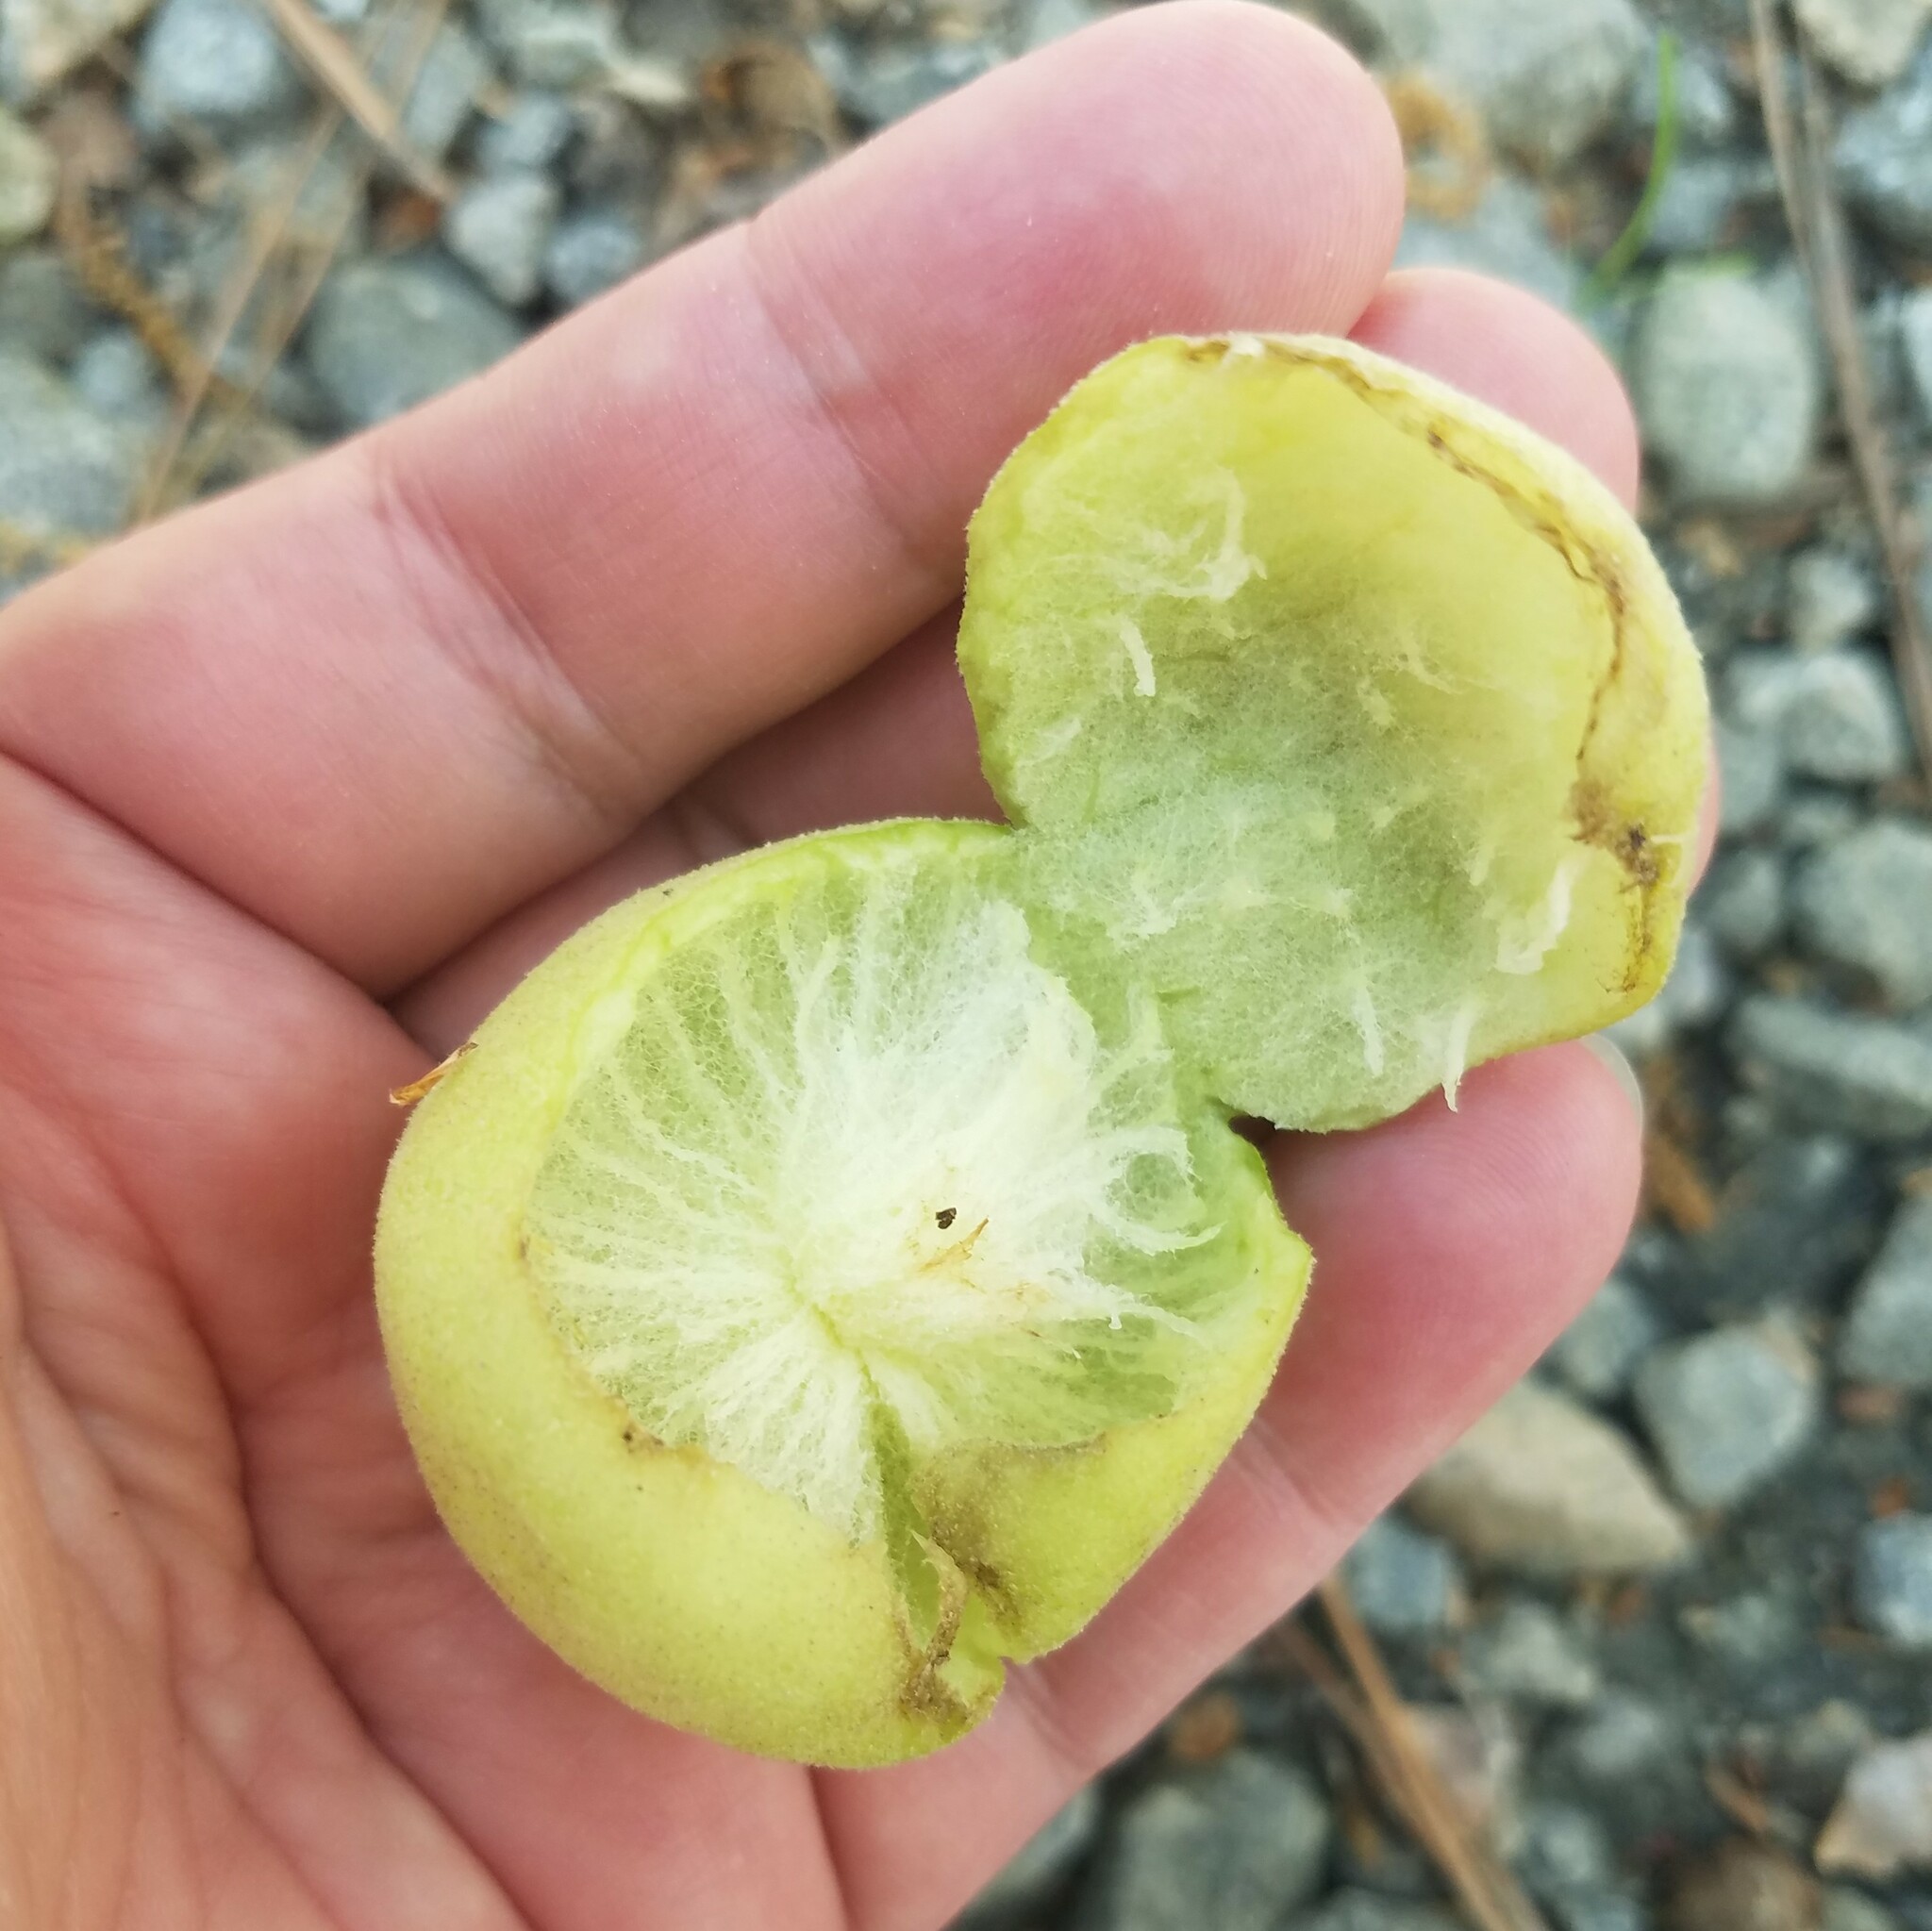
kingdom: Animalia
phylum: Arthropoda
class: Insecta
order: Hymenoptera
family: Cynipidae
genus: Amphibolips
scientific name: Amphibolips
